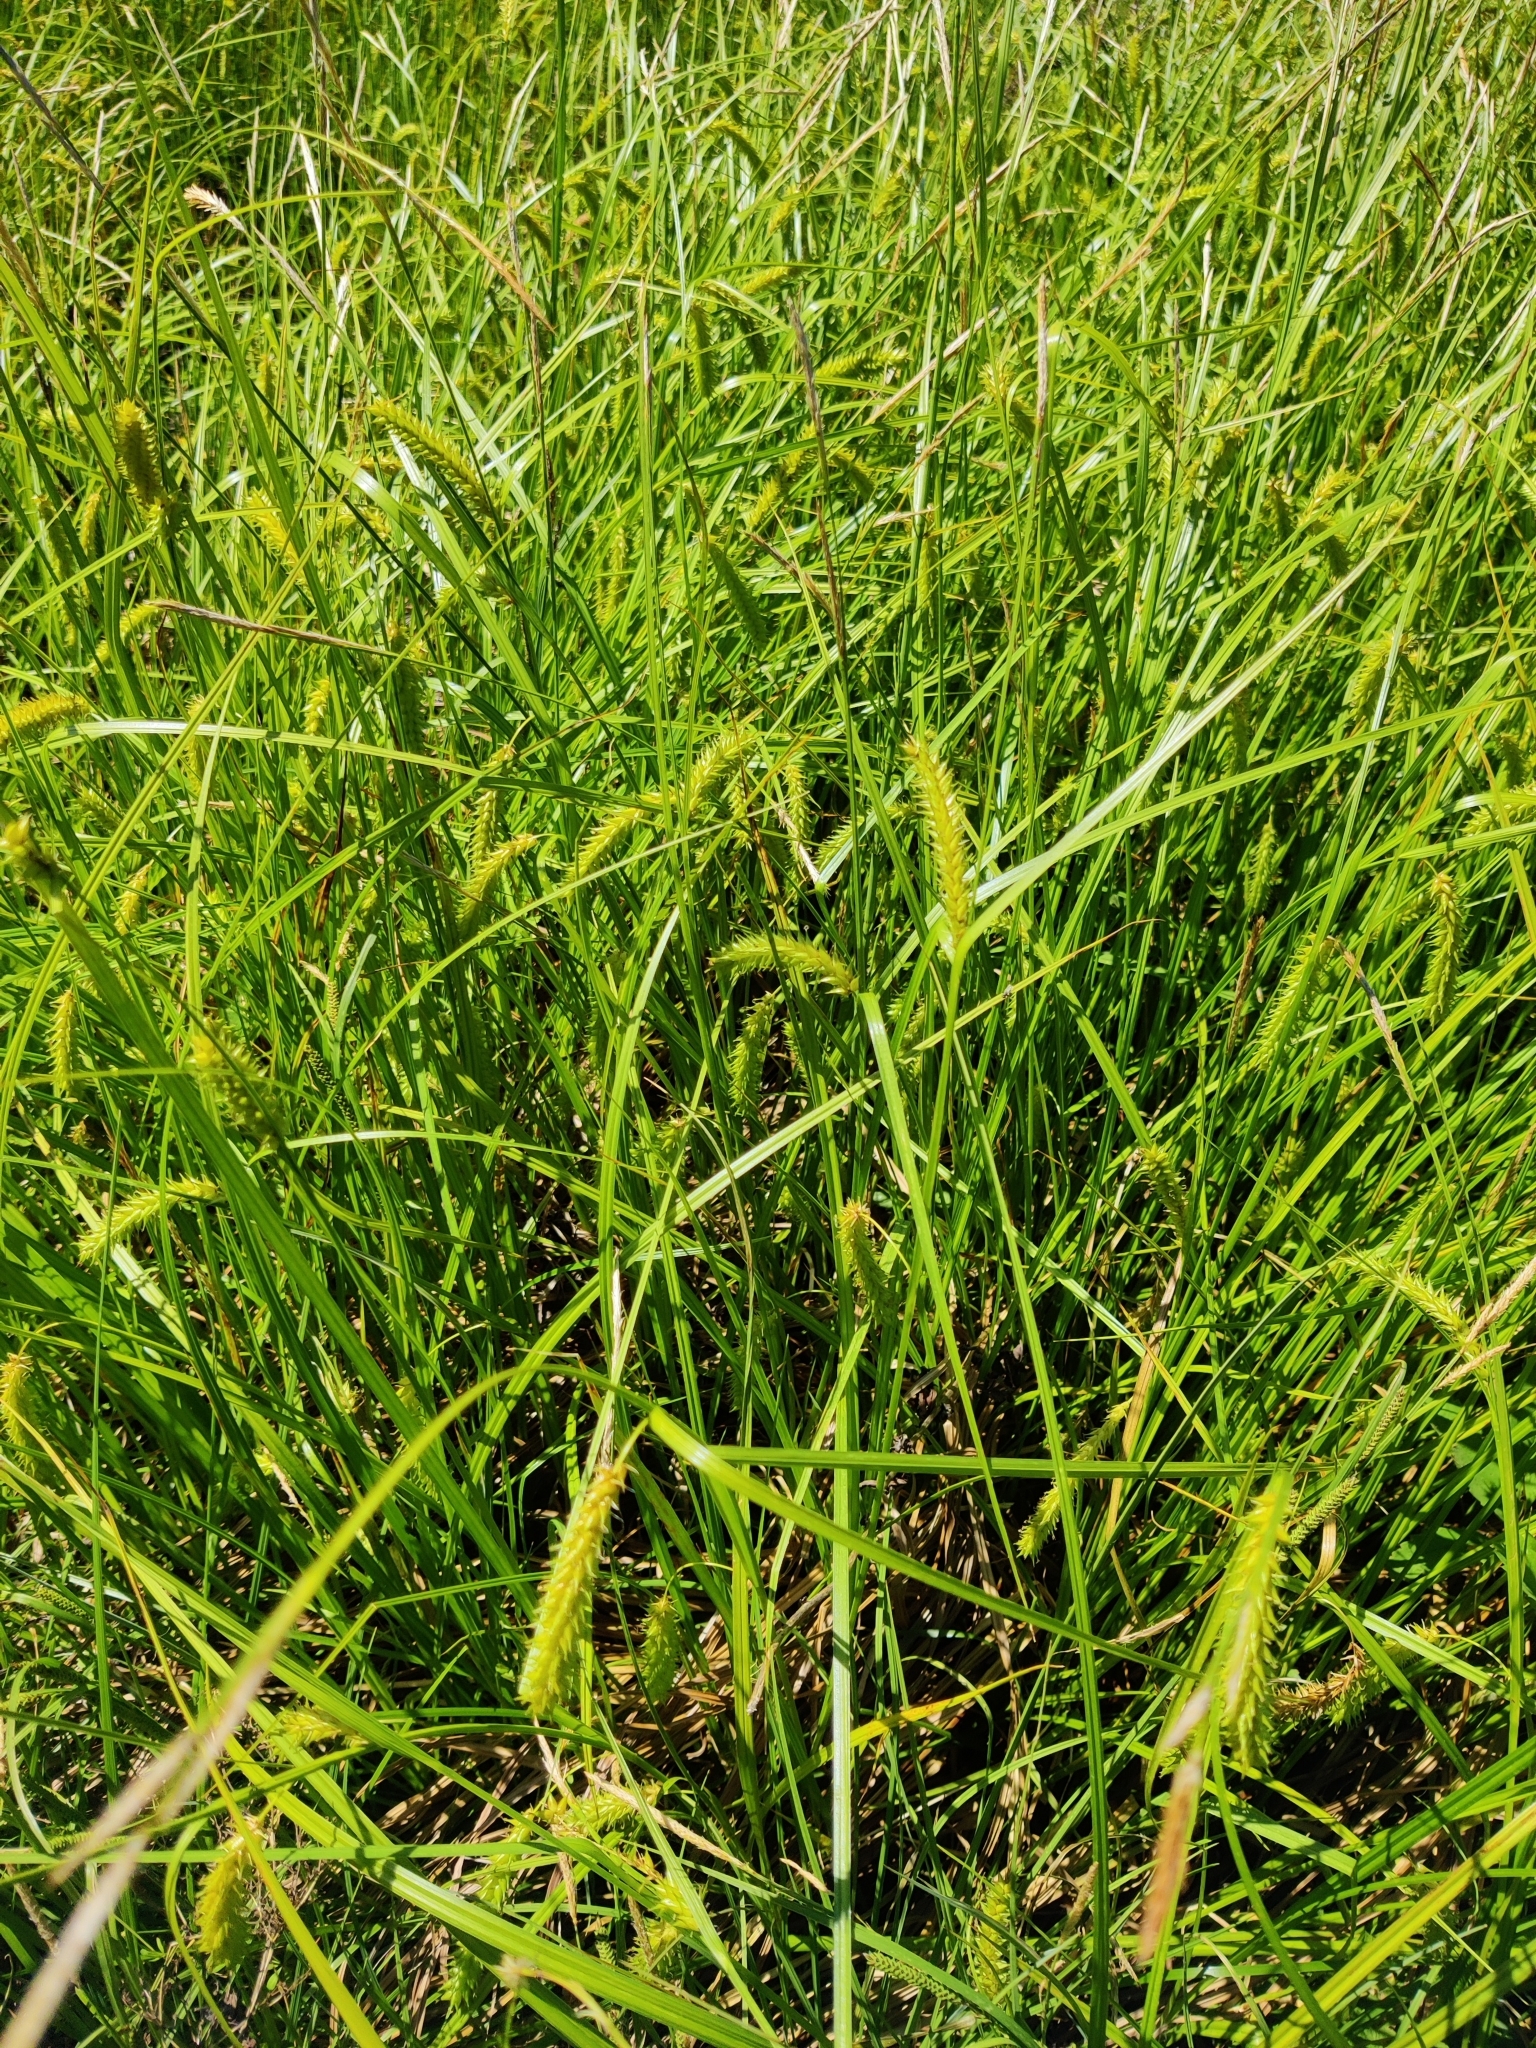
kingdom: Plantae
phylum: Tracheophyta
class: Liliopsida
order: Poales
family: Cyperaceae
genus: Carex
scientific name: Carex vesicaria
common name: Bladder-sedge
